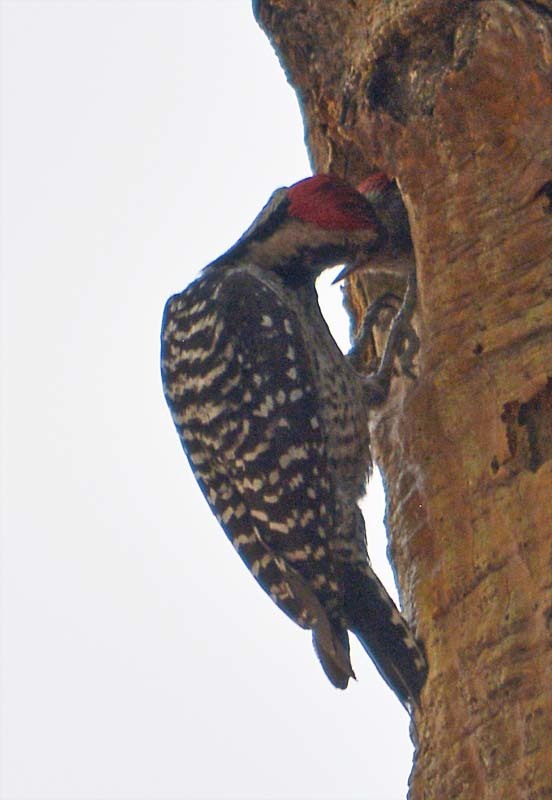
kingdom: Animalia
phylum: Chordata
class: Aves
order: Piciformes
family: Picidae
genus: Dryobates
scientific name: Dryobates scalaris
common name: Ladder-backed woodpecker
